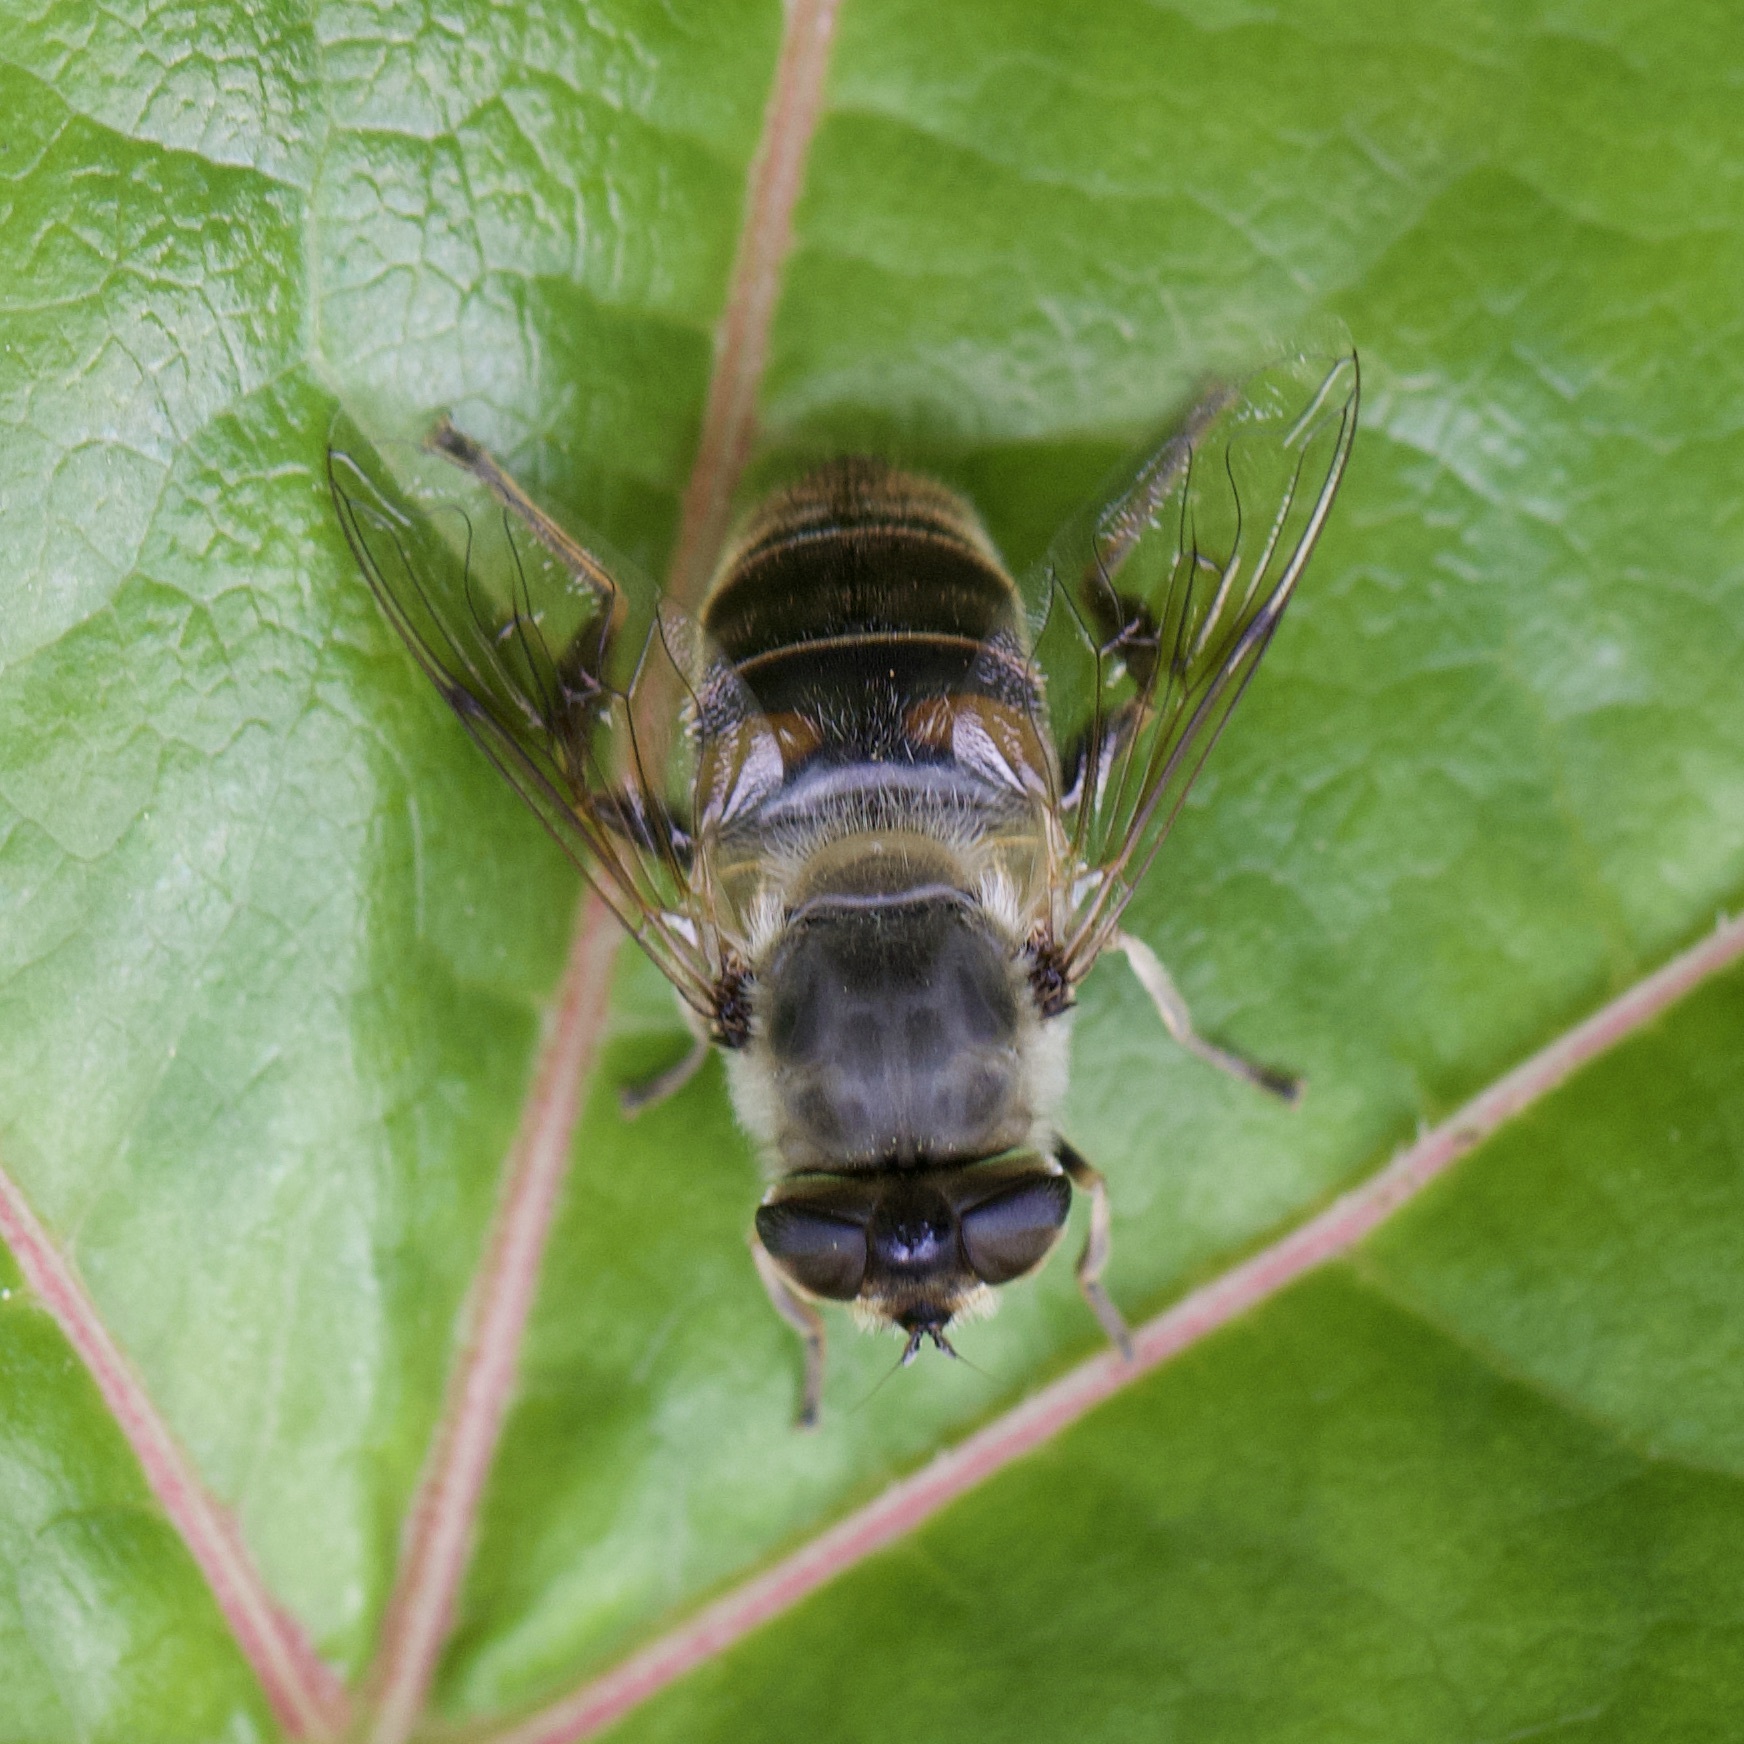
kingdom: Animalia
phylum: Arthropoda
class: Insecta
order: Diptera
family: Syrphidae
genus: Eristalis
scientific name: Eristalis tenax
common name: Drone fly
